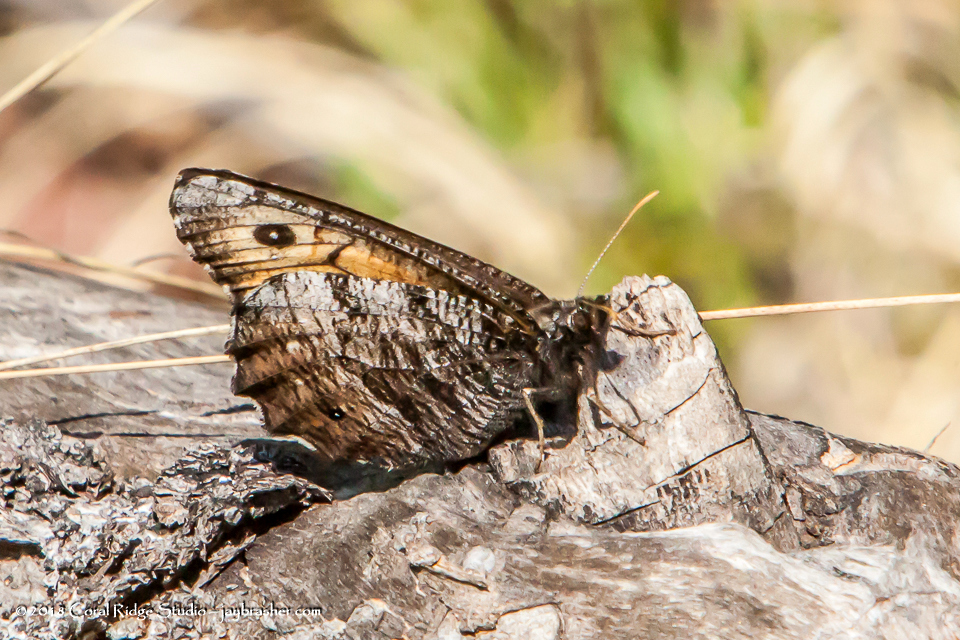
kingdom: Animalia
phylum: Arthropoda
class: Insecta
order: Lepidoptera
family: Nymphalidae
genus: Oeneis
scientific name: Oeneis macounii
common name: Macoun's arctic
